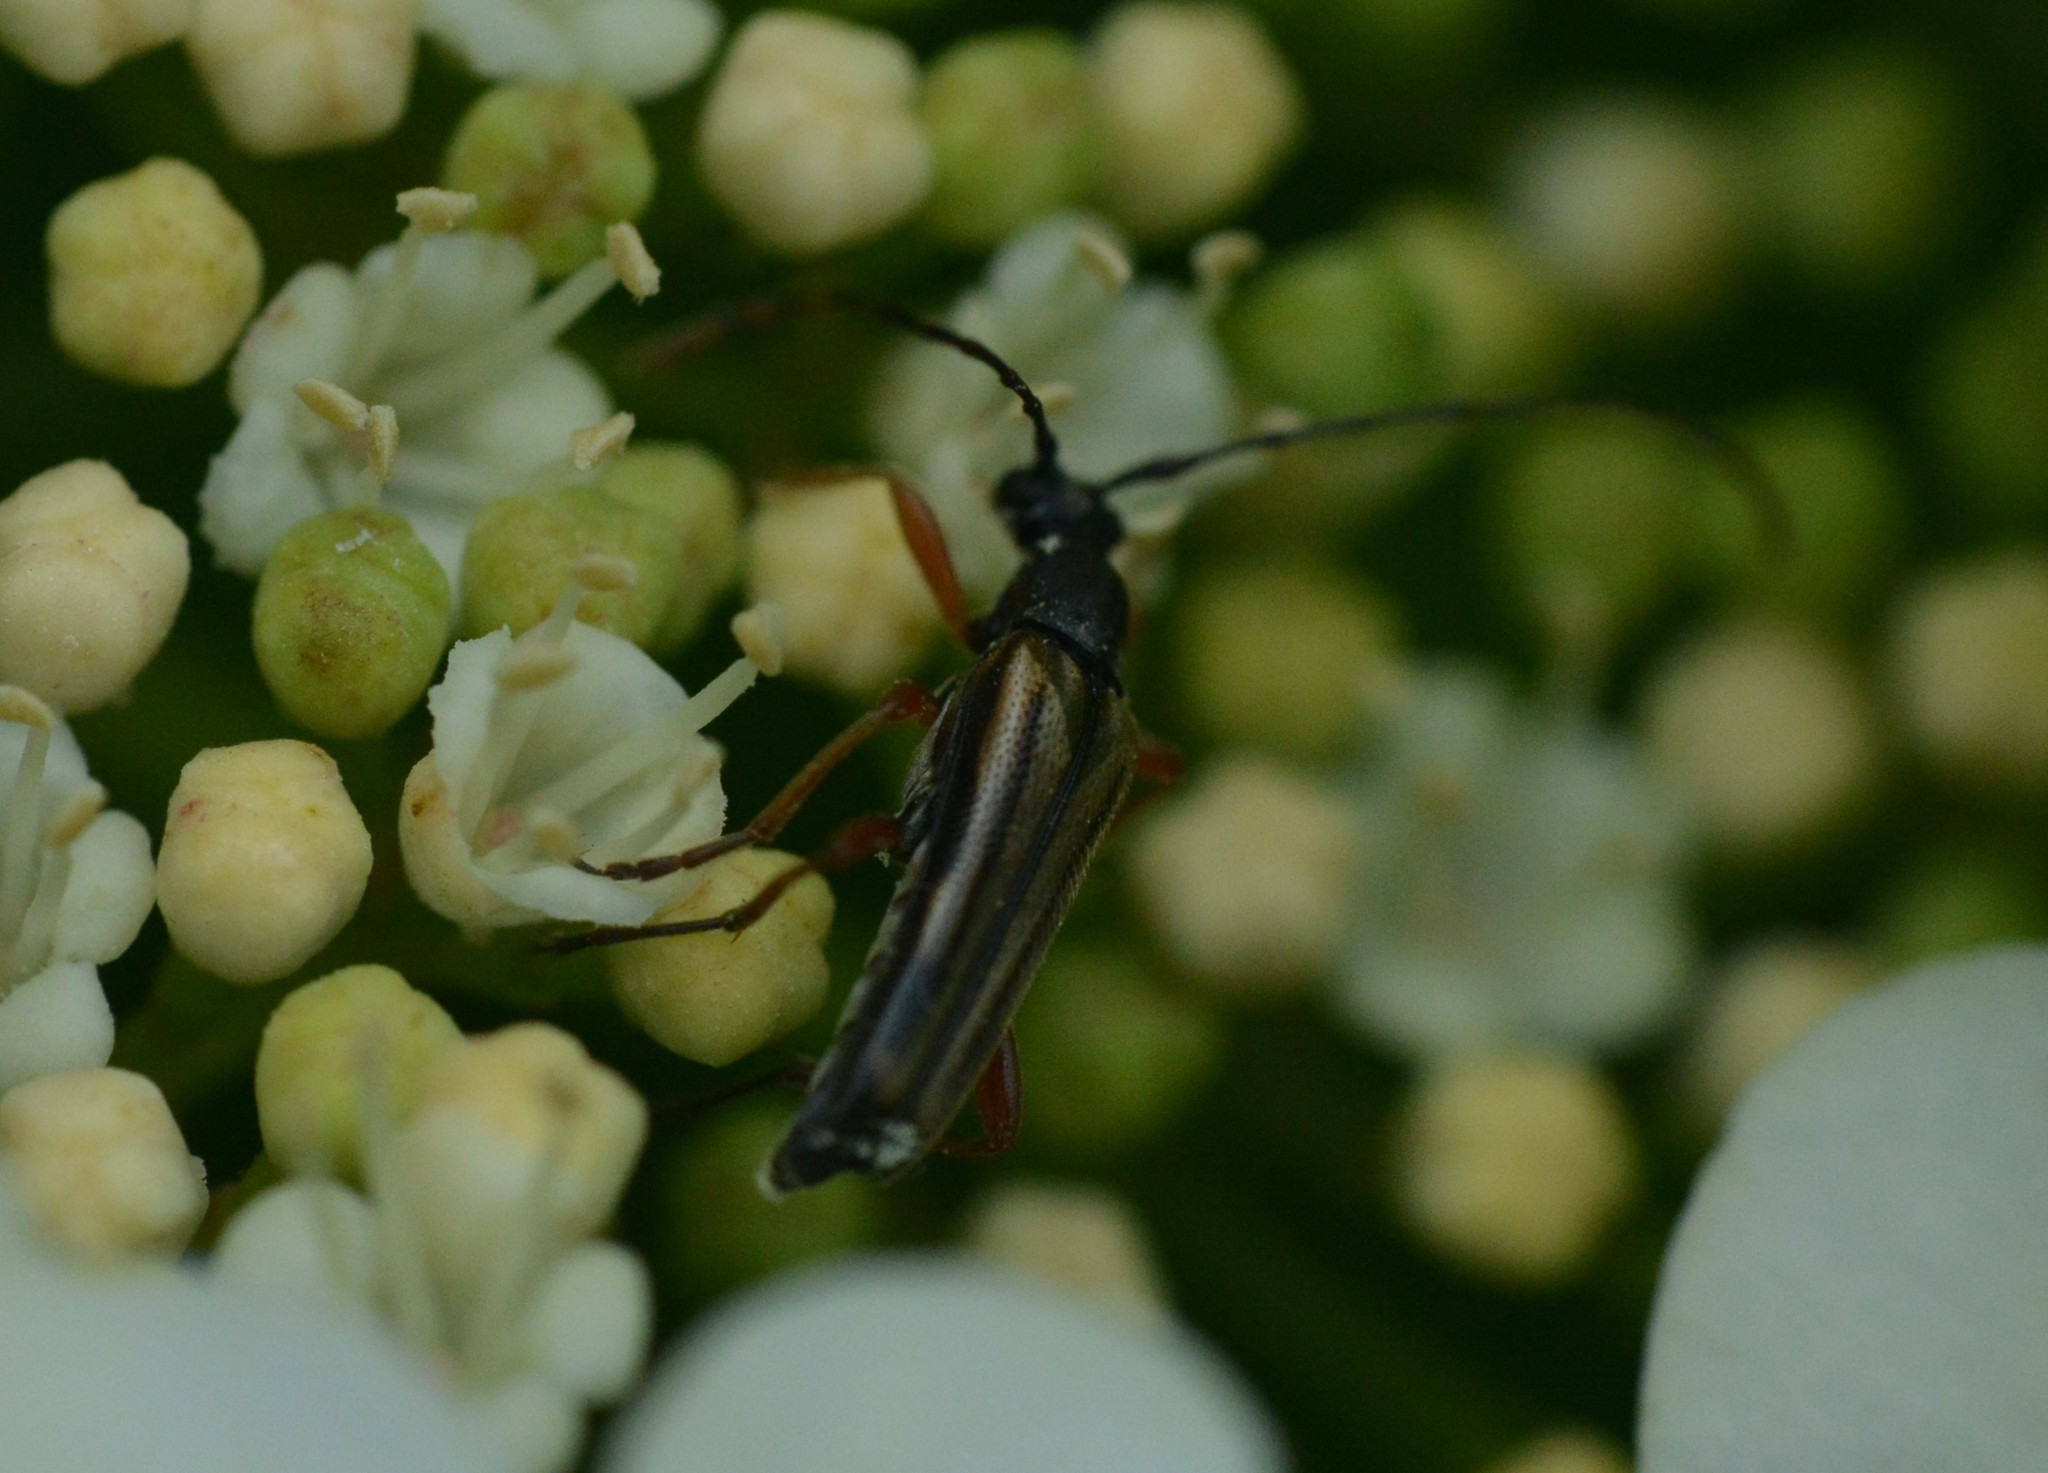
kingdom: Animalia
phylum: Arthropoda
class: Insecta
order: Coleoptera
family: Cerambycidae
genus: Analeptura
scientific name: Analeptura lineola
